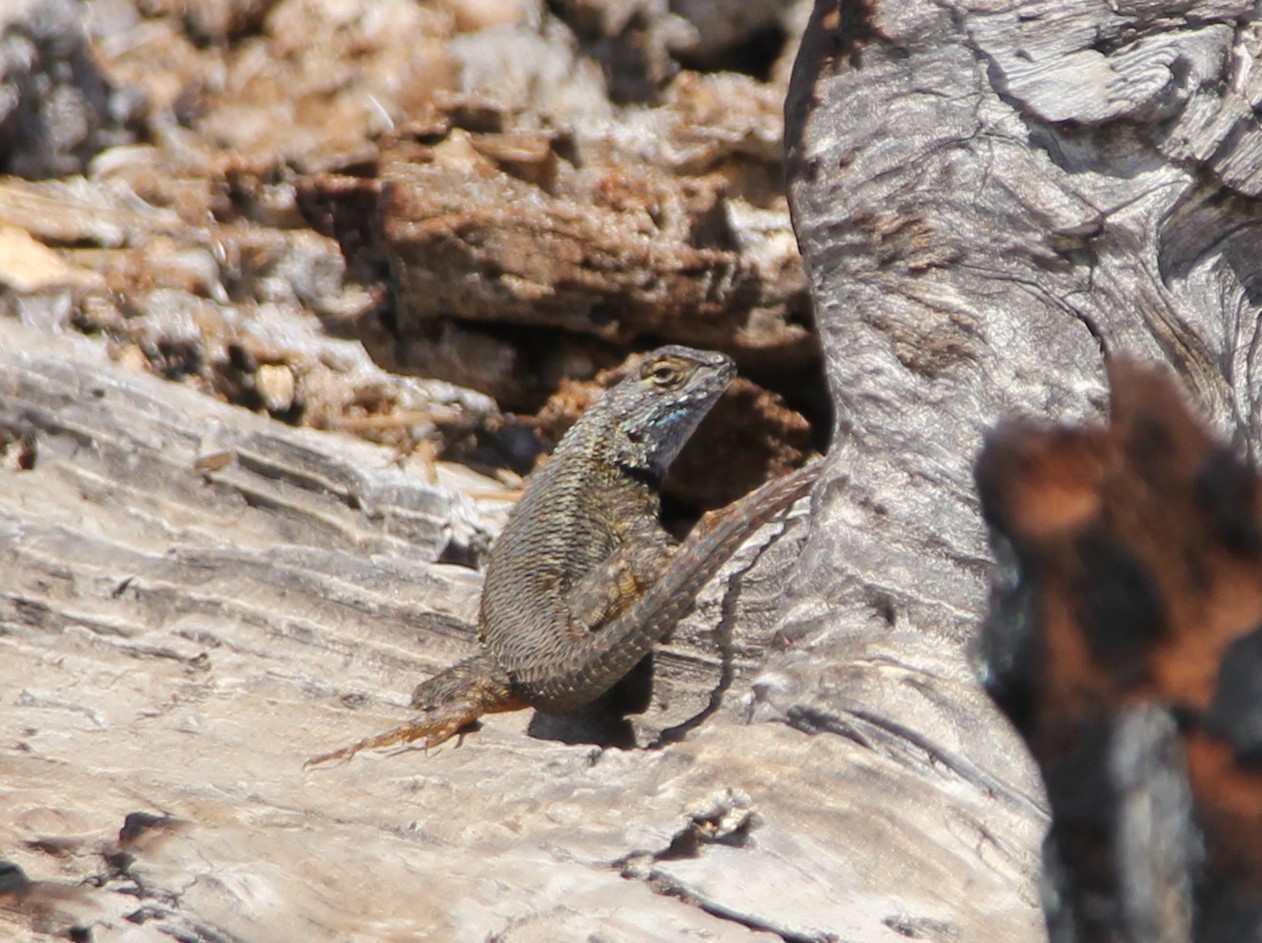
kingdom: Animalia
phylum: Chordata
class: Squamata
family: Phrynosomatidae
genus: Sceloporus
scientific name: Sceloporus occidentalis
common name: Western fence lizard
